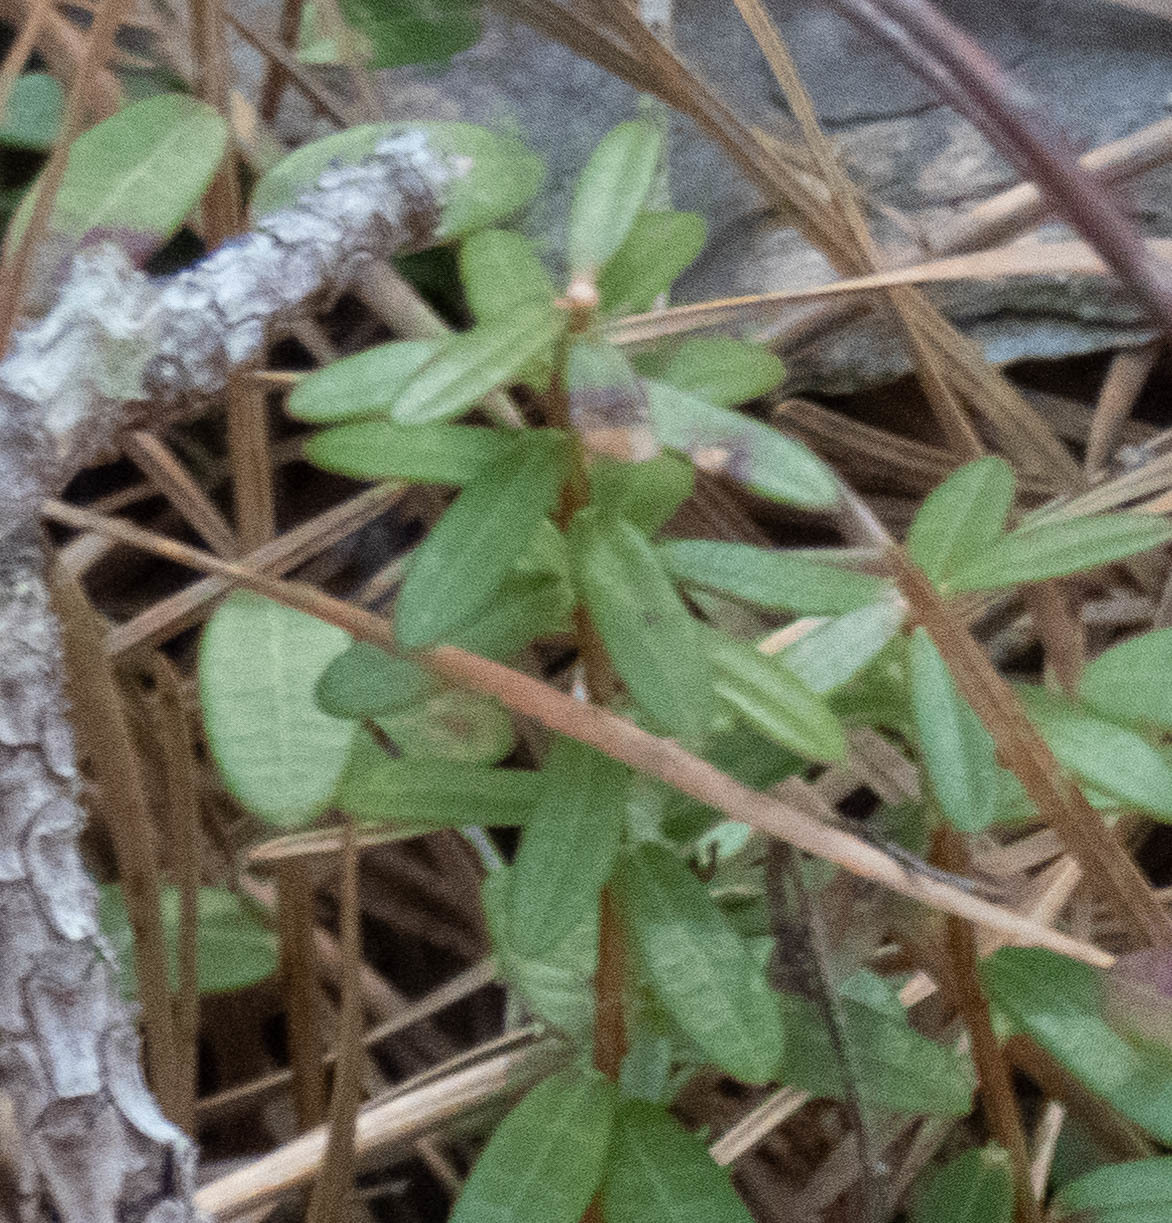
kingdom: Plantae
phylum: Tracheophyta
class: Magnoliopsida
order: Ericales
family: Ericaceae
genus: Vaccinium
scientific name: Vaccinium macrocarpon
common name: American cranberry
